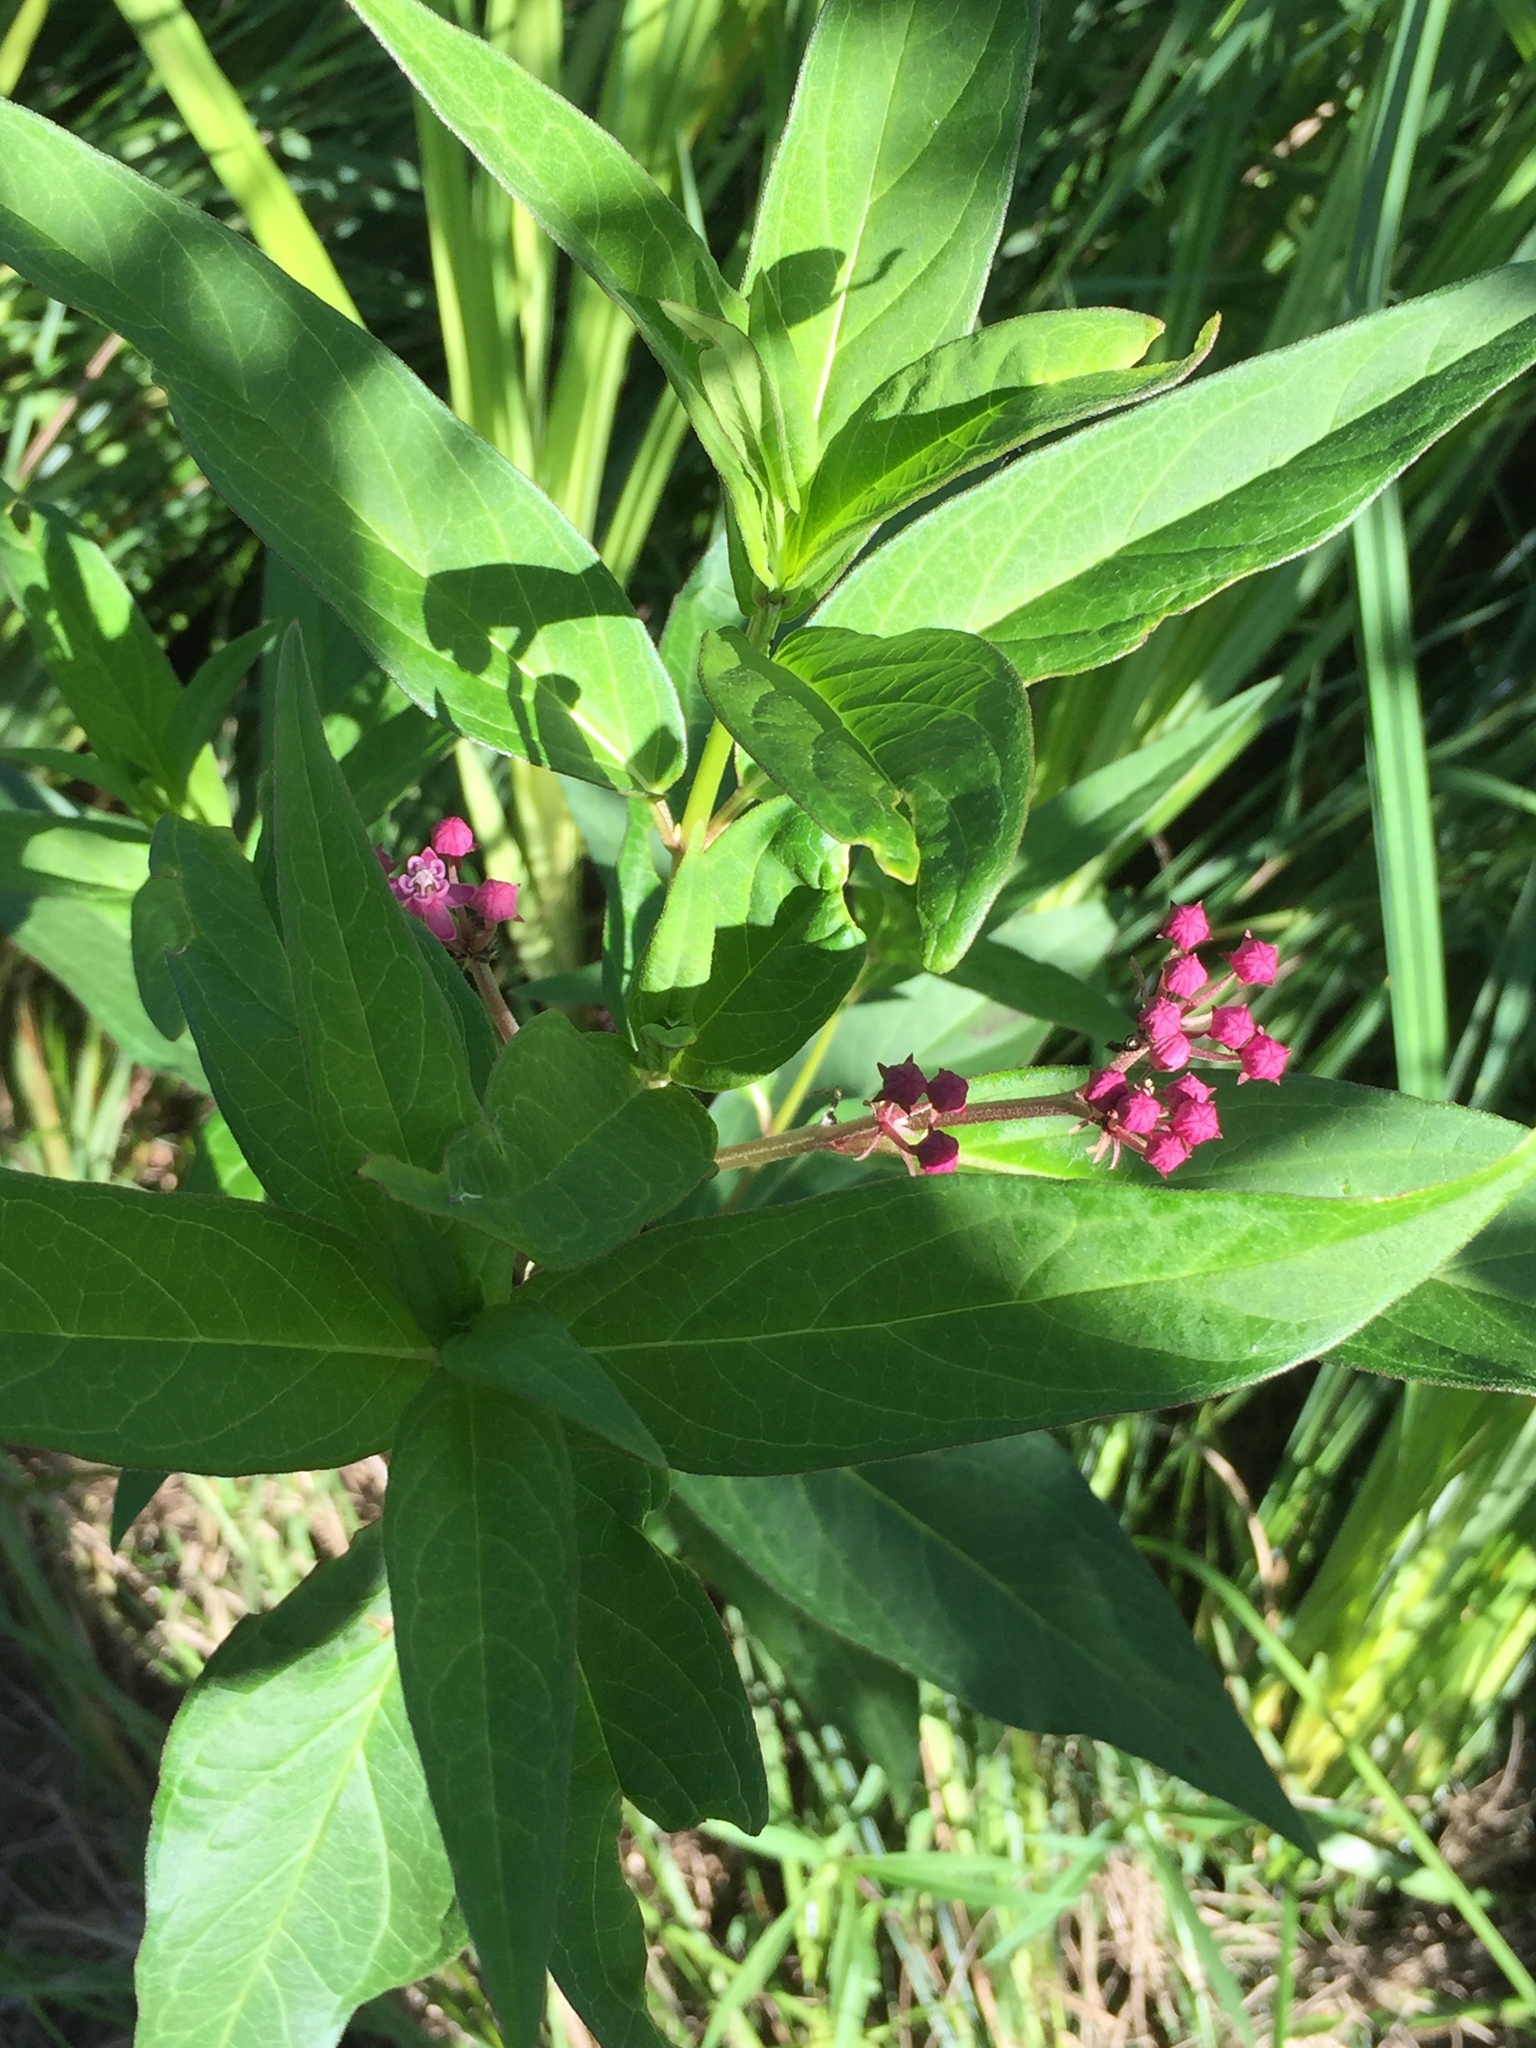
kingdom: Plantae
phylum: Tracheophyta
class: Magnoliopsida
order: Gentianales
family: Apocynaceae
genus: Asclepias
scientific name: Asclepias incarnata
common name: Swamp milkweed
